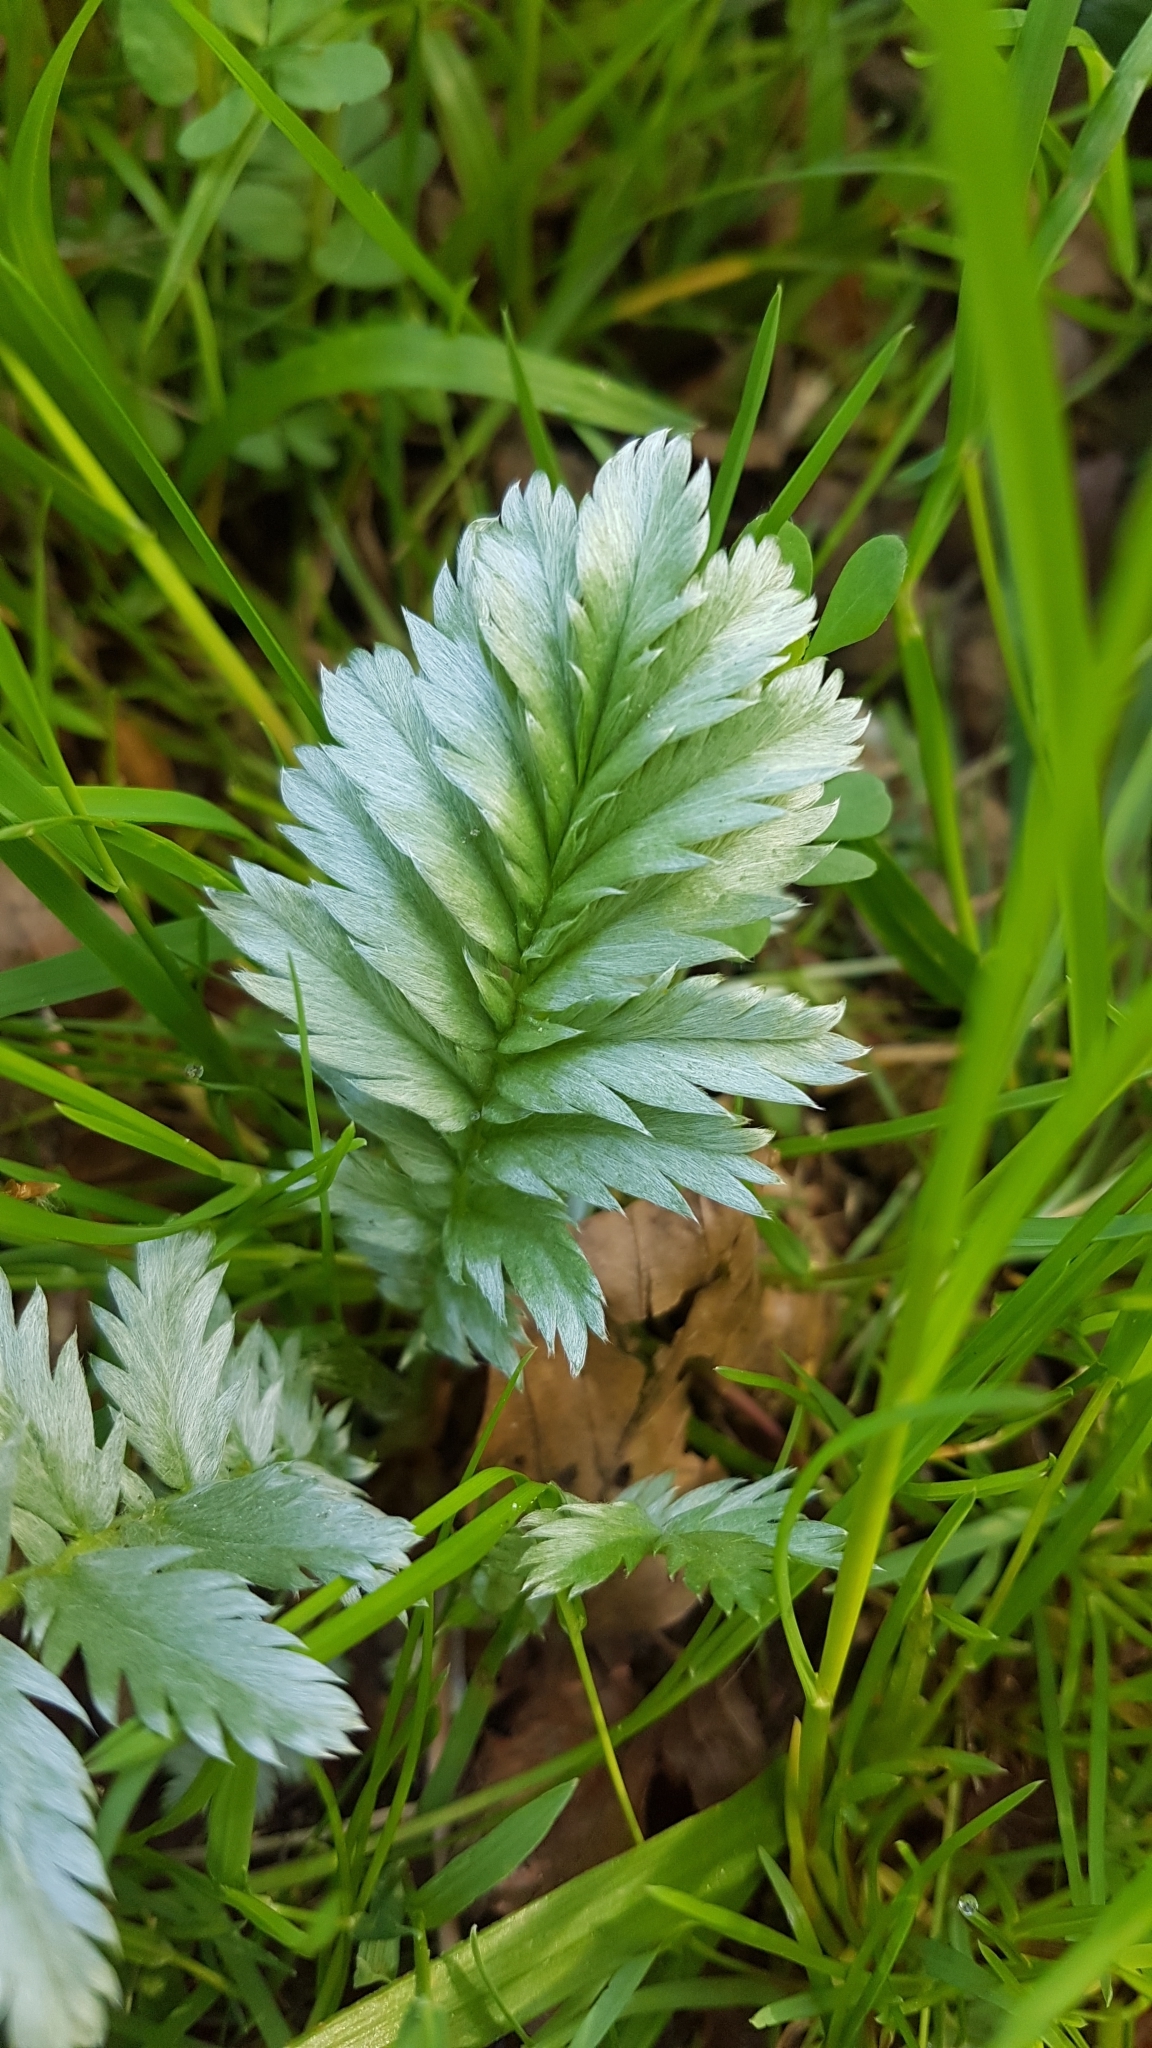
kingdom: Plantae
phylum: Tracheophyta
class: Magnoliopsida
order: Rosales
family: Rosaceae
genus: Argentina
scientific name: Argentina anserina
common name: Common silverweed
